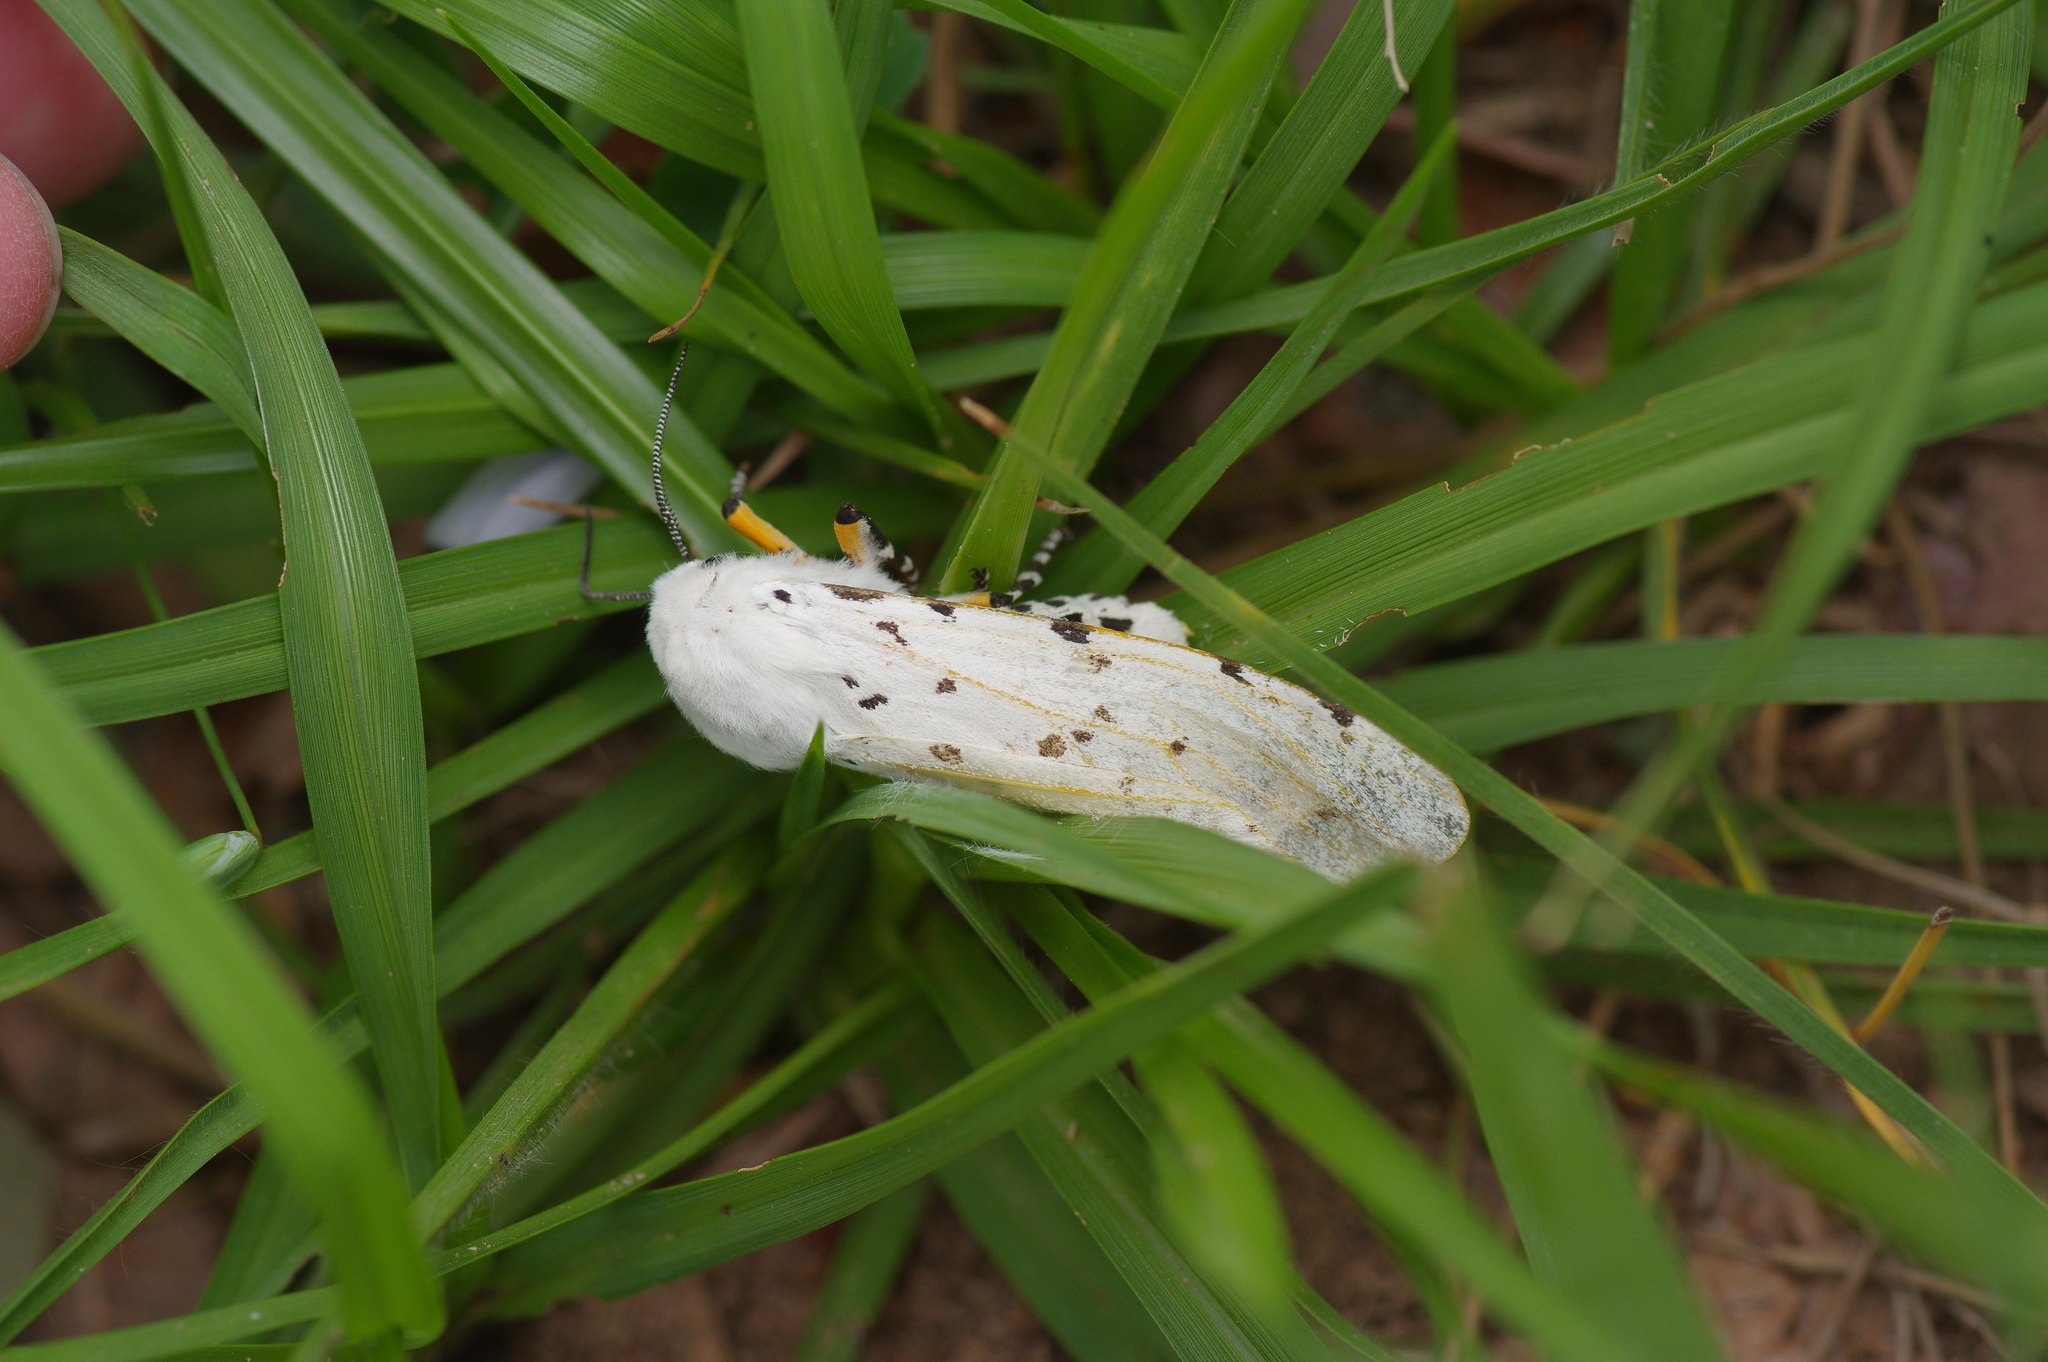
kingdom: Animalia
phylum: Arthropoda
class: Insecta
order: Lepidoptera
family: Erebidae
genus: Estigmene
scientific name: Estigmene acrea
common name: Salt marsh moth
